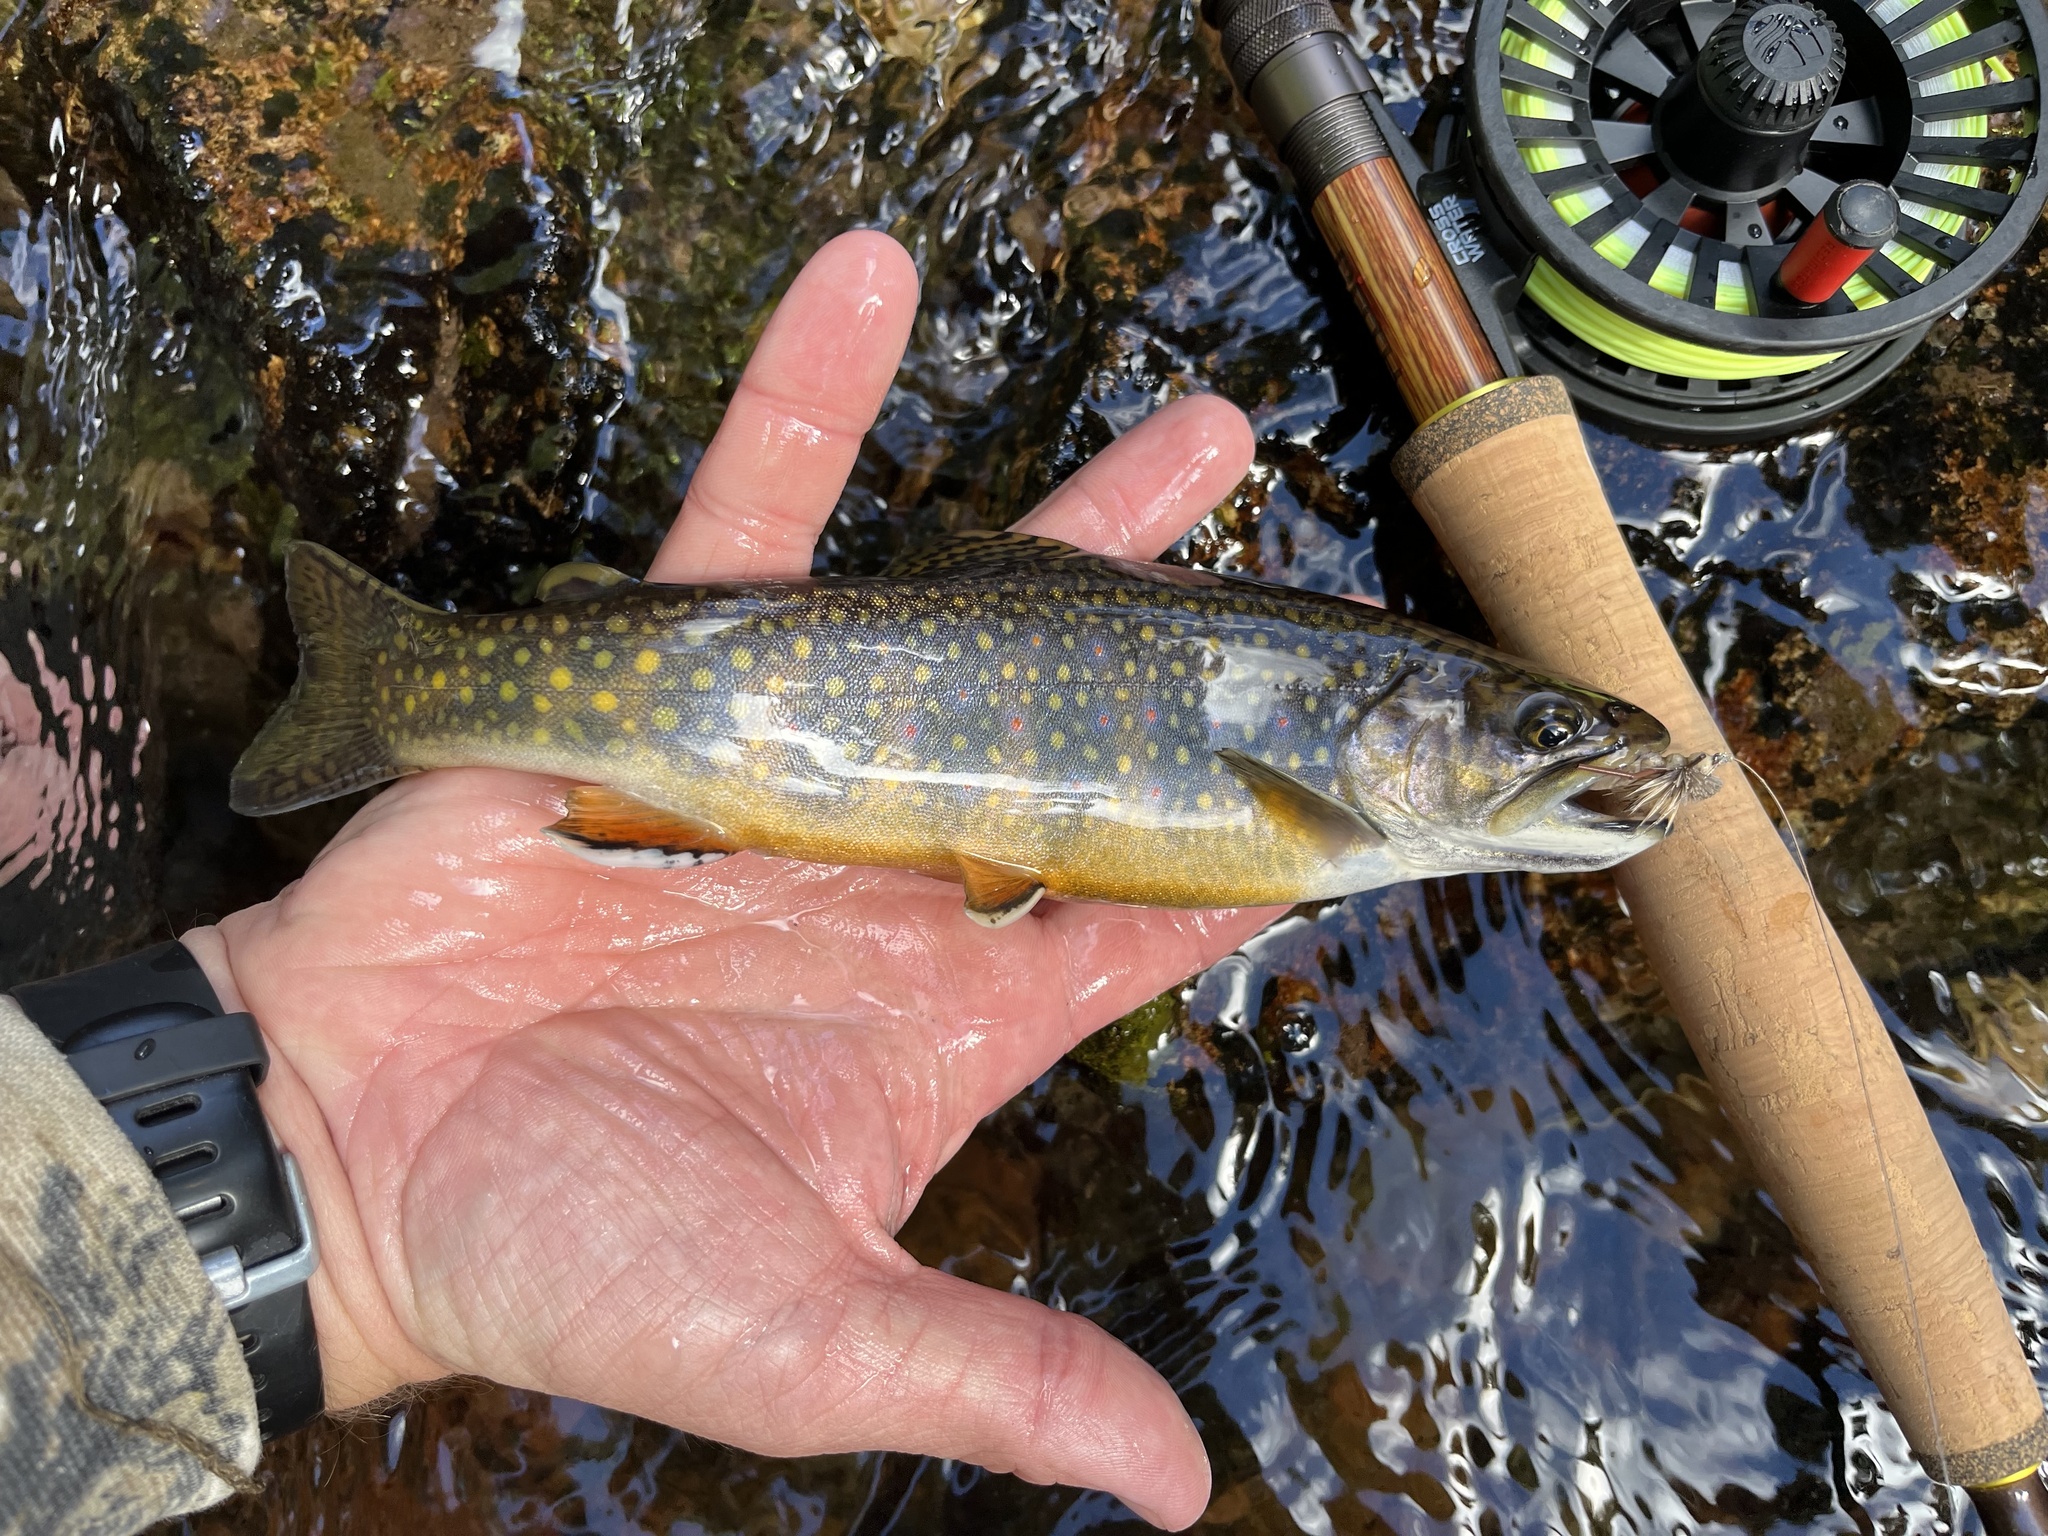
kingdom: Animalia
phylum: Chordata
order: Salmoniformes
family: Salmonidae
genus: Salvelinus
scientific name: Salvelinus fontinalis
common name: Brook trout
